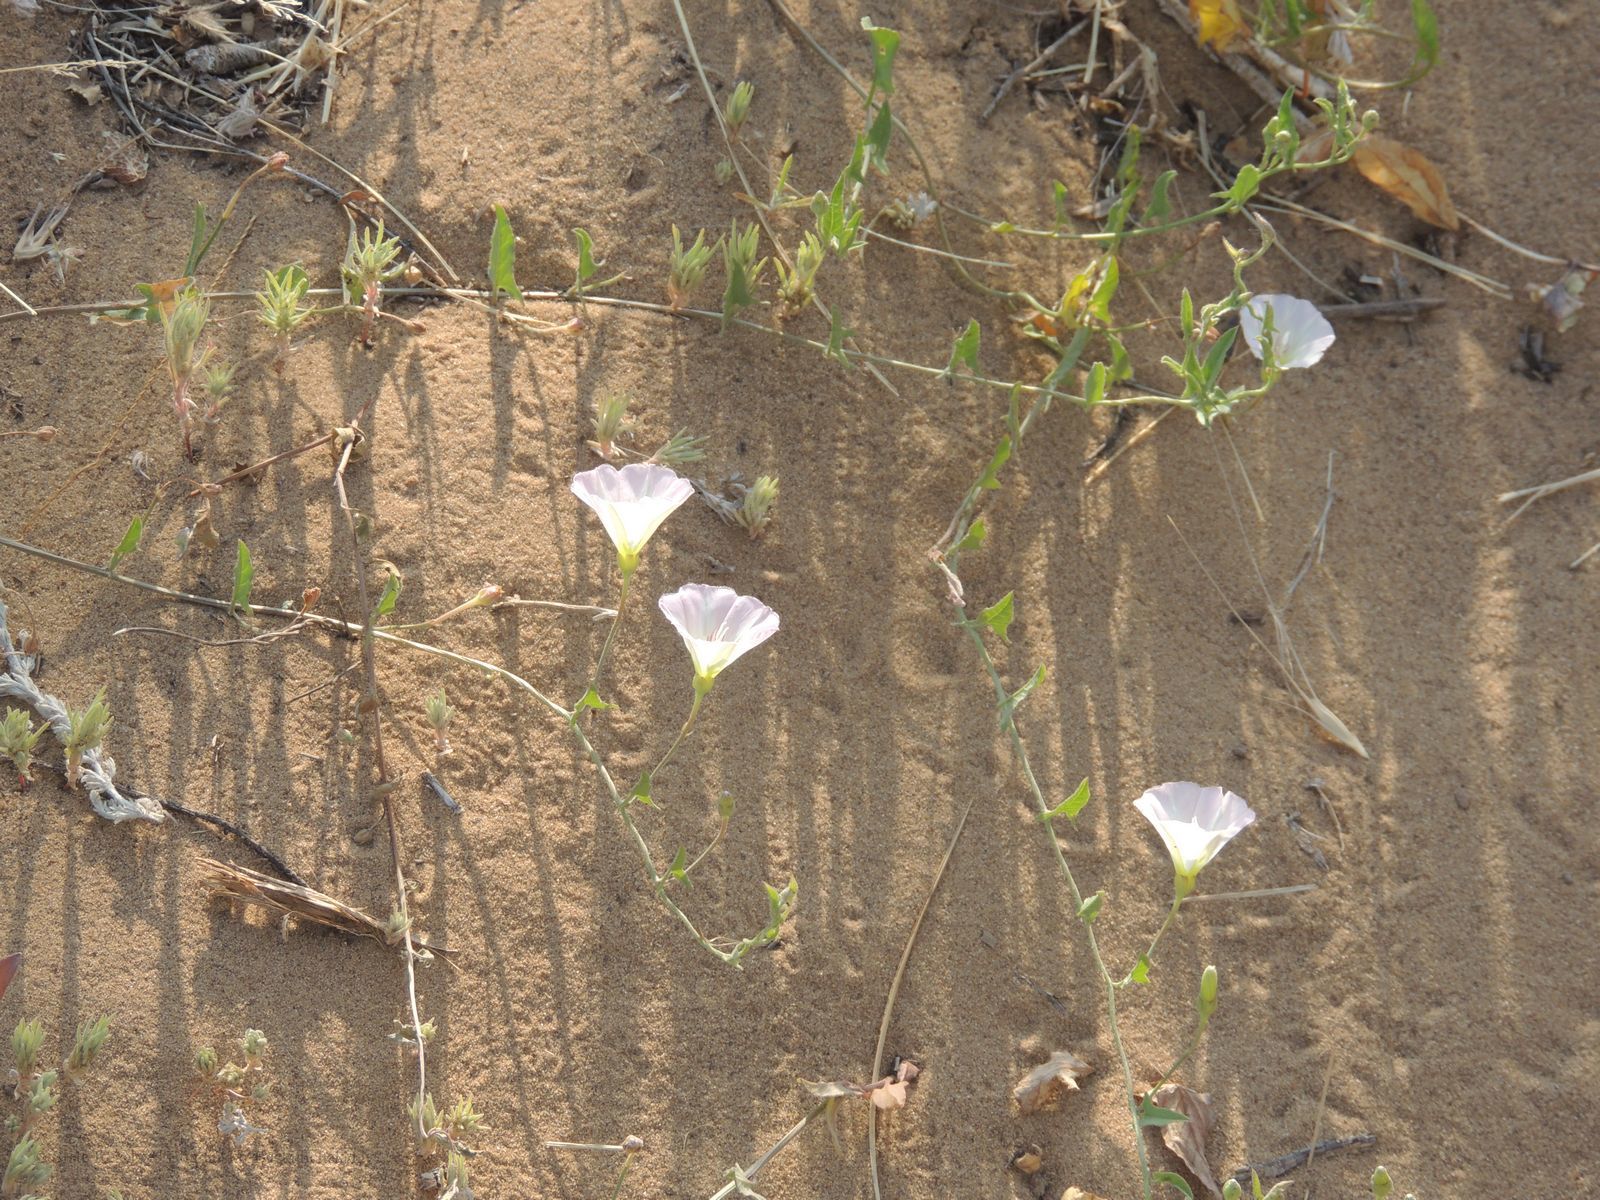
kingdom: Plantae
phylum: Tracheophyta
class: Magnoliopsida
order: Solanales
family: Convolvulaceae
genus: Convolvulus
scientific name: Convolvulus arvensis
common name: Field bindweed
